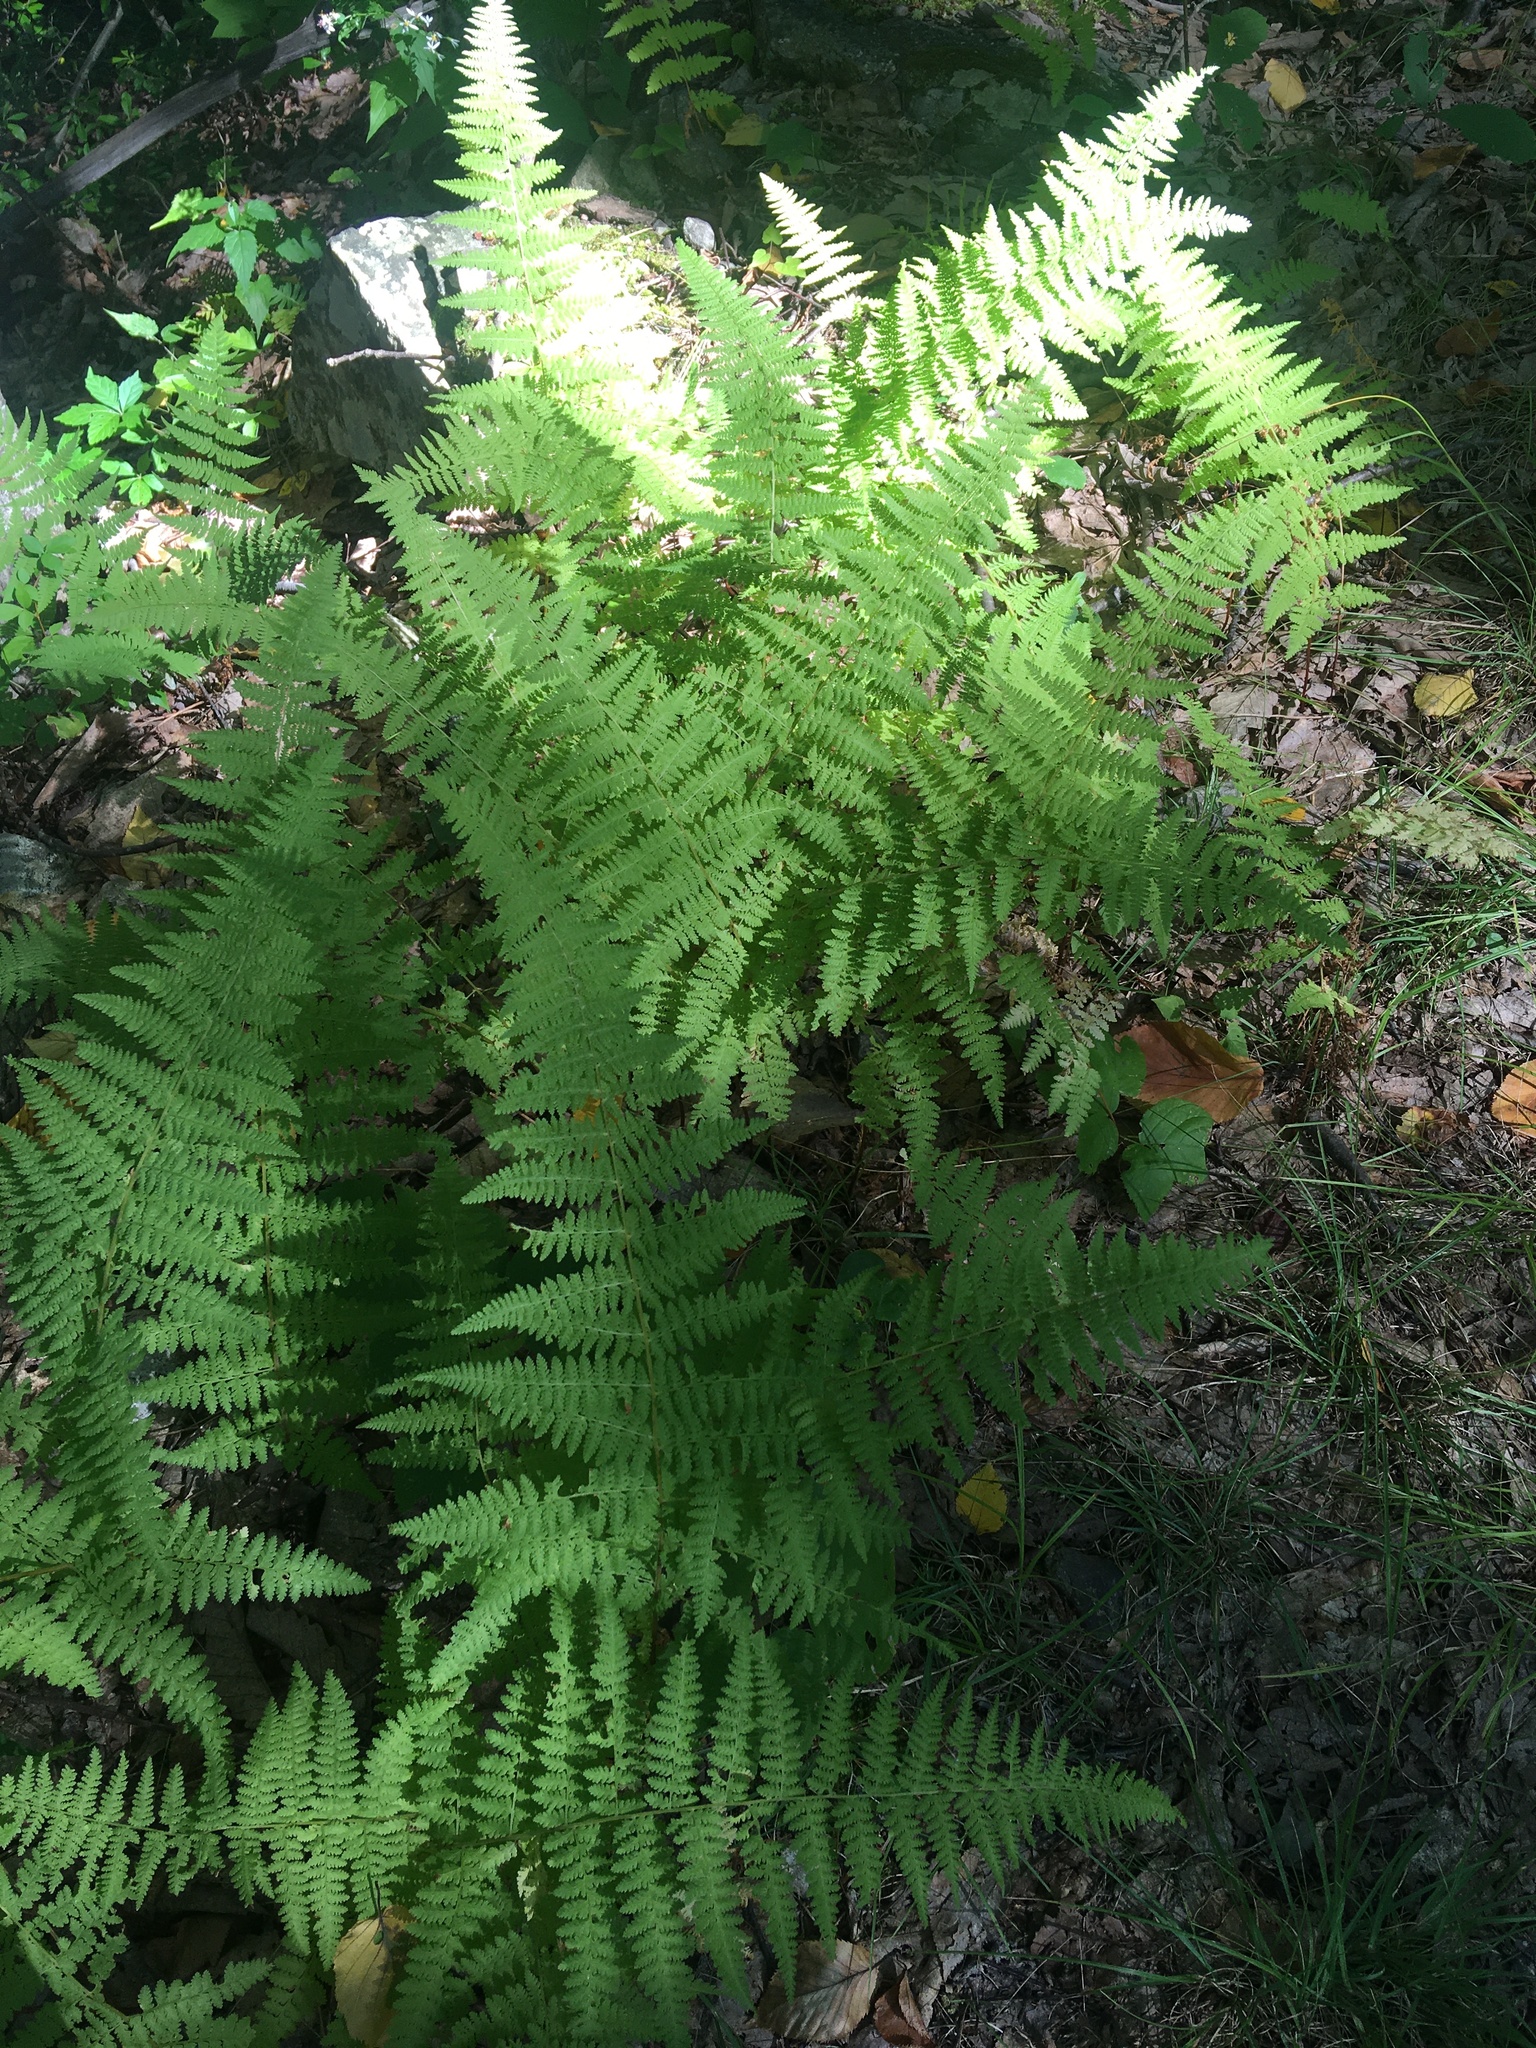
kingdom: Plantae
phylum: Tracheophyta
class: Polypodiopsida
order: Polypodiales
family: Dennstaedtiaceae
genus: Sitobolium
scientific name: Sitobolium punctilobum
